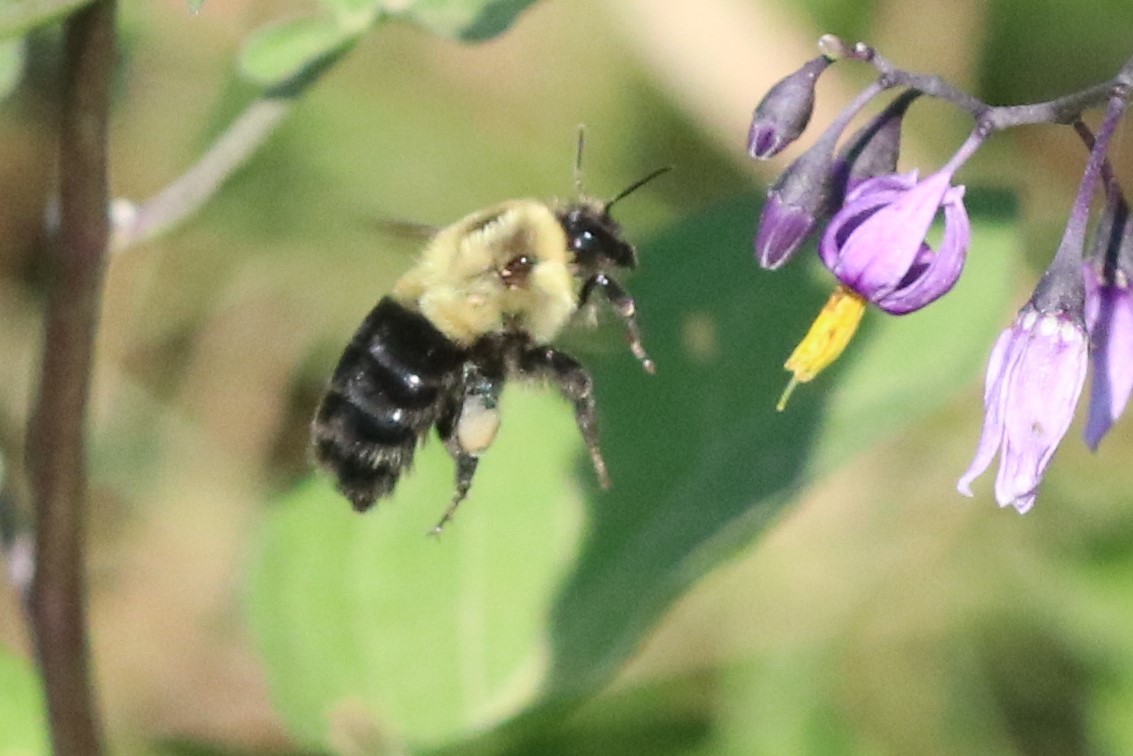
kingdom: Animalia
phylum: Arthropoda
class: Insecta
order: Hymenoptera
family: Apidae
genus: Bombus
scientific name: Bombus impatiens
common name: Common eastern bumble bee
